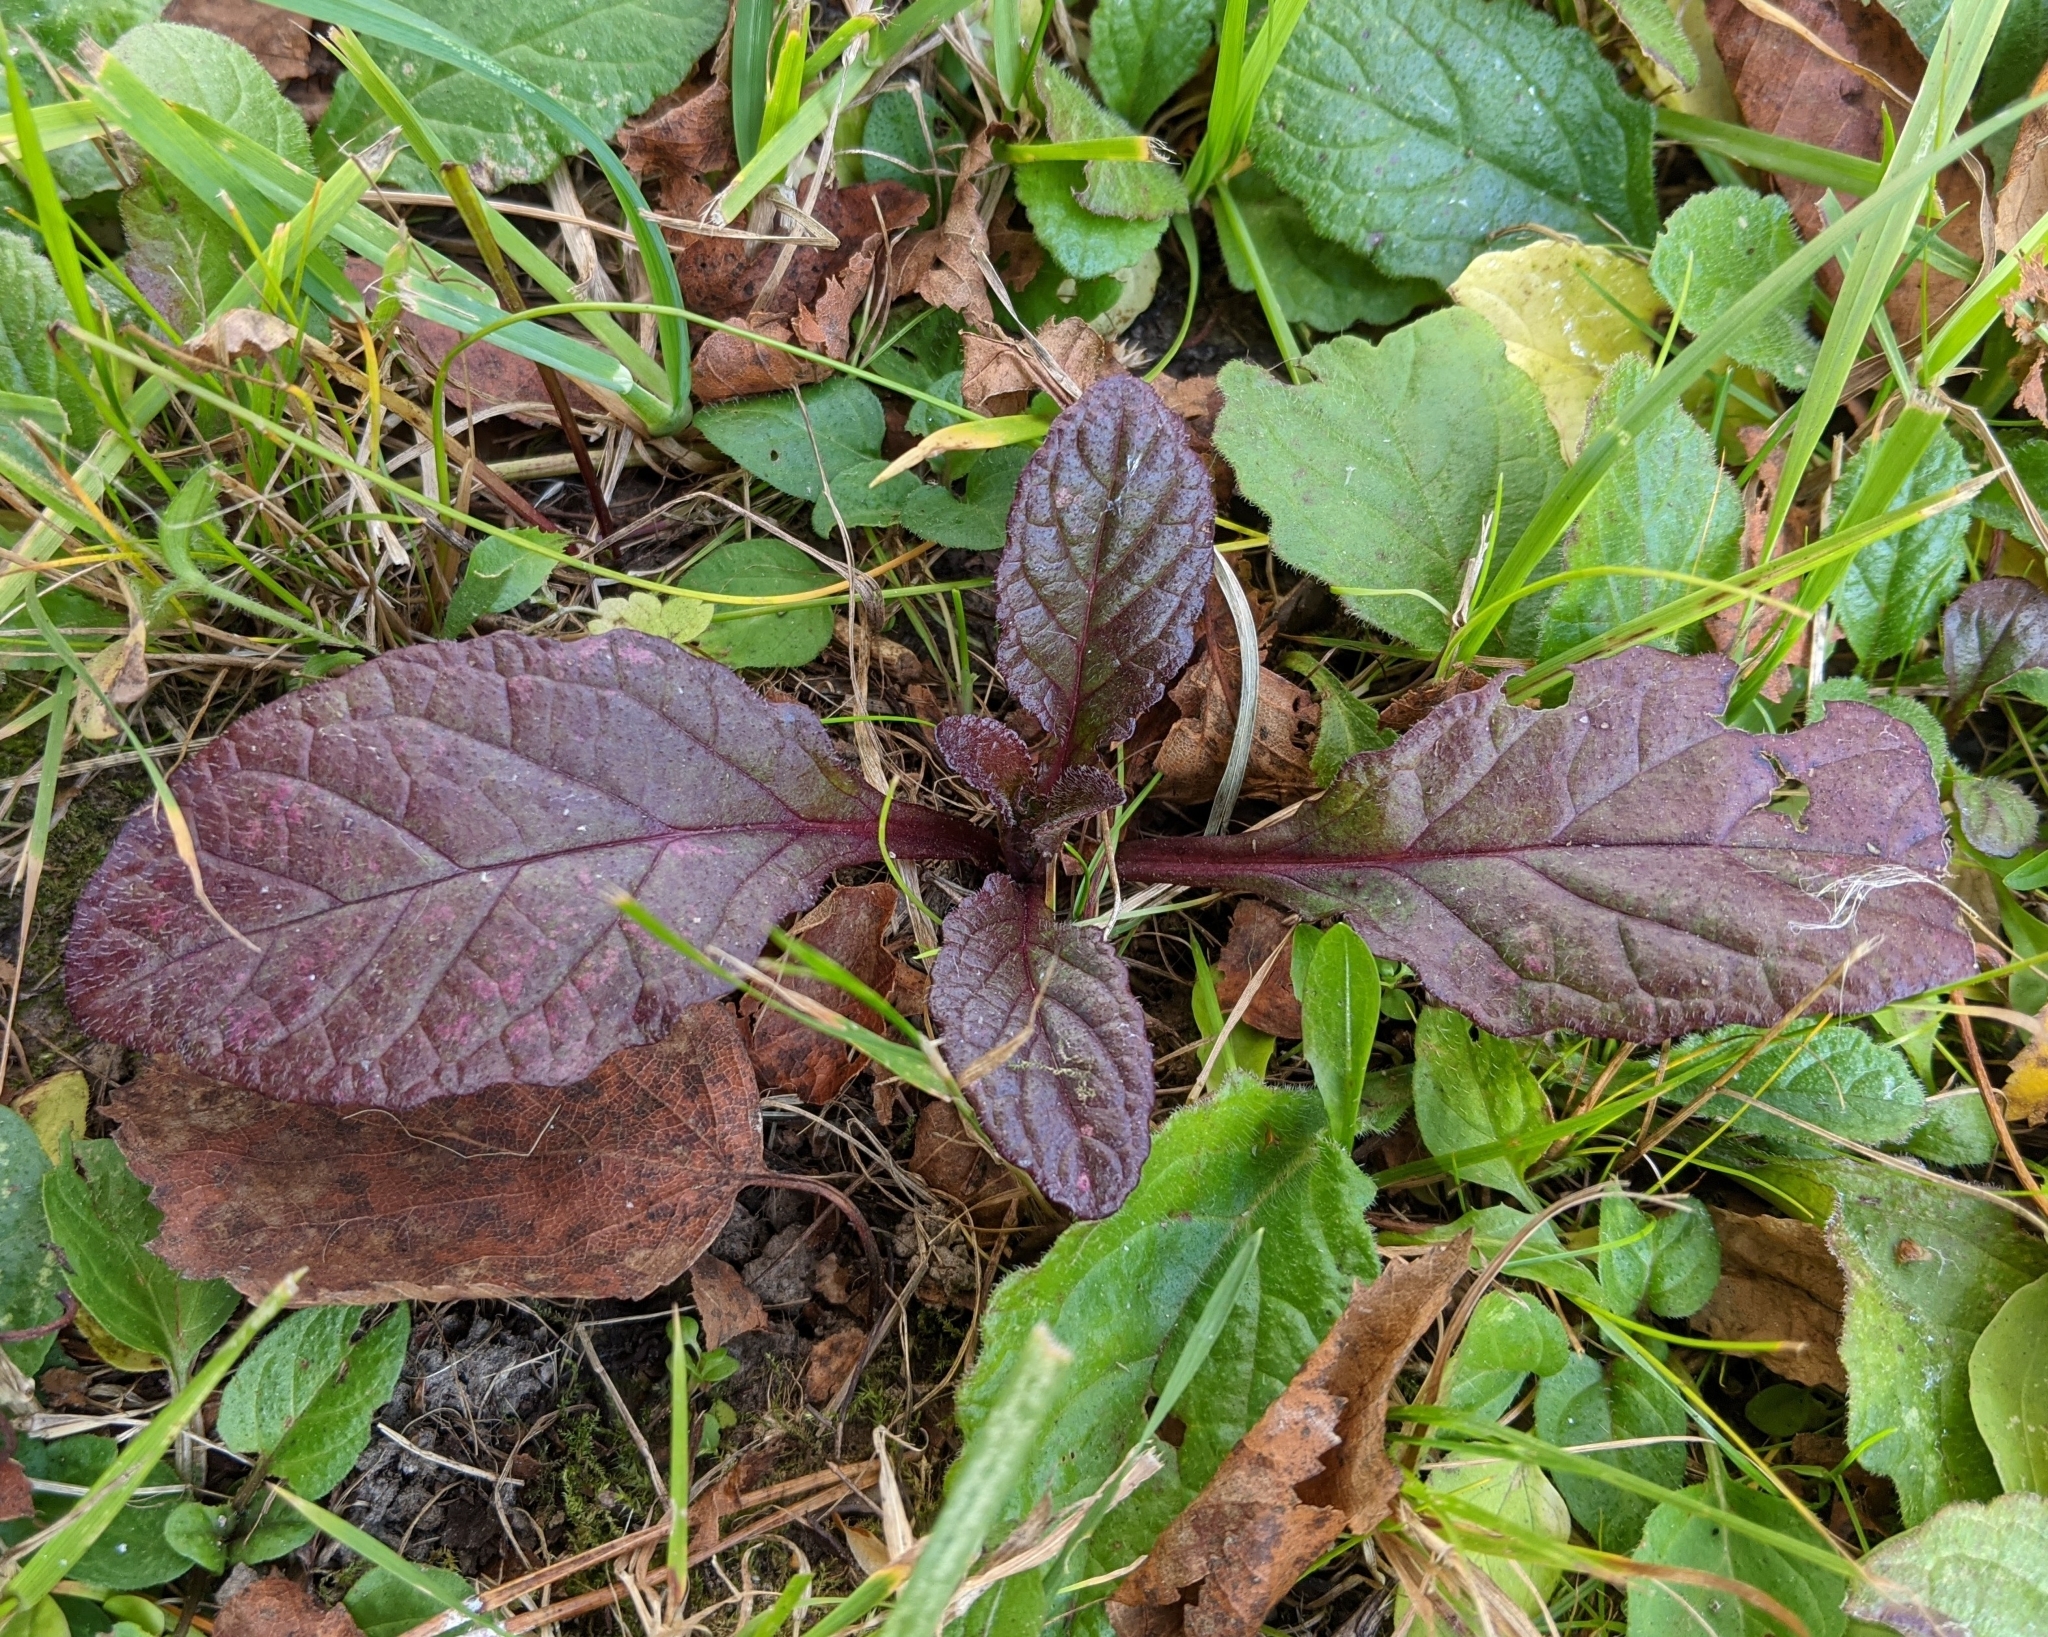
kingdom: Plantae
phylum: Tracheophyta
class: Magnoliopsida
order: Lamiales
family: Lamiaceae
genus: Ajuga
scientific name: Ajuga reptans
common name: Bugle
